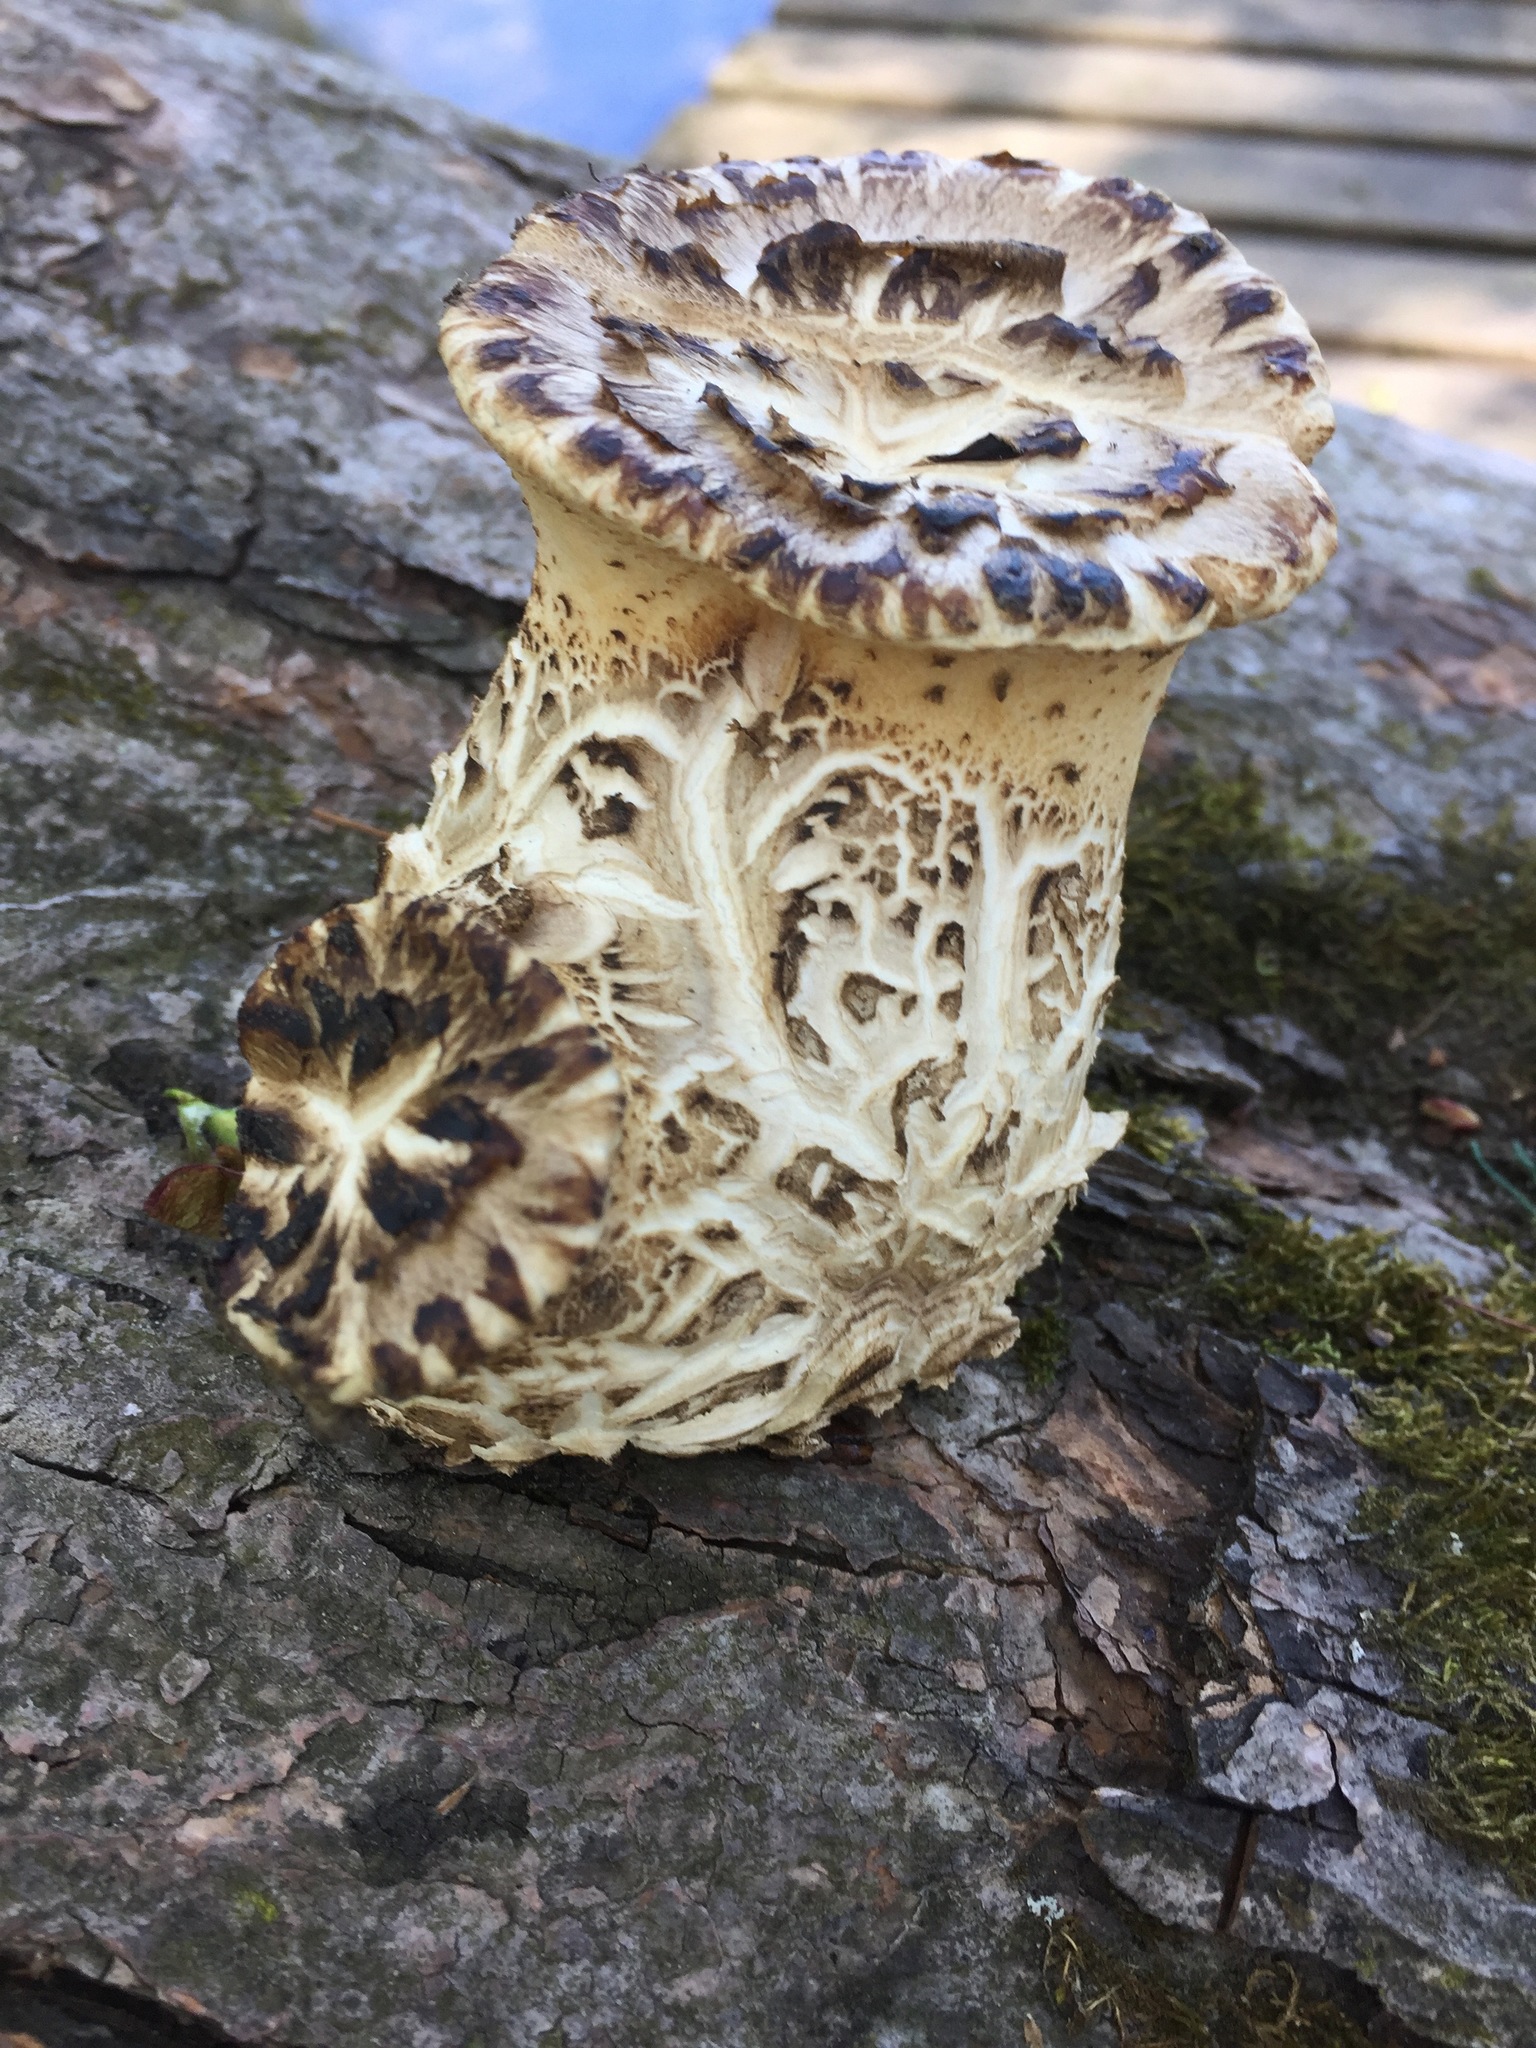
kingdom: Fungi
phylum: Basidiomycota
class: Agaricomycetes
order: Polyporales
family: Polyporaceae
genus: Cerioporus
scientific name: Cerioporus squamosus
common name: Dryad's saddle
